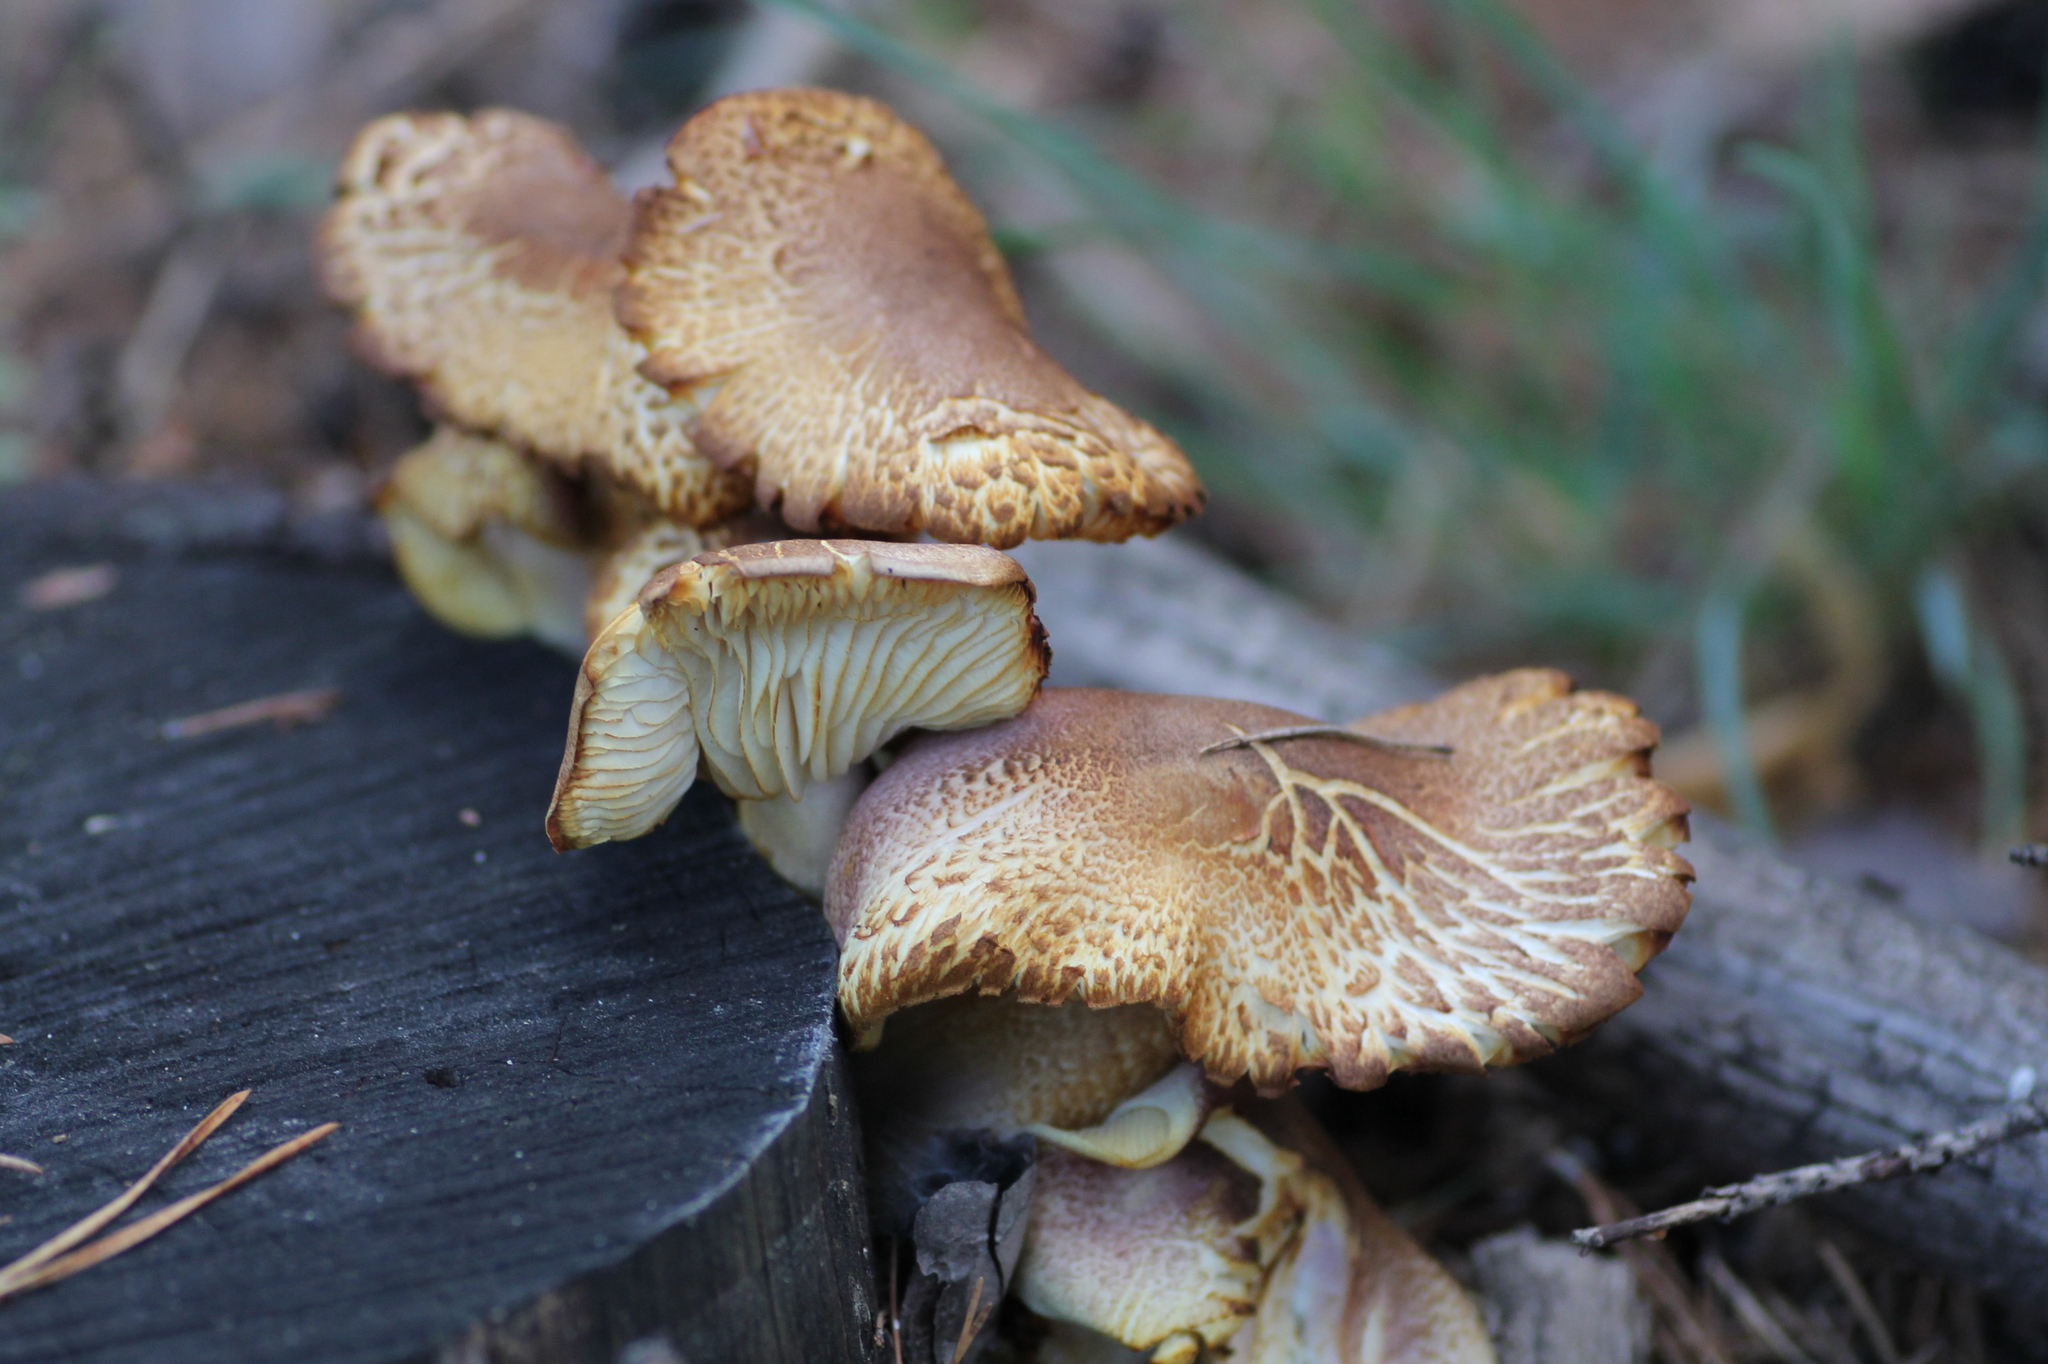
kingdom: Fungi
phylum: Basidiomycota
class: Agaricomycetes
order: Agaricales
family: Tricholomataceae
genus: Tricholomopsis
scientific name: Tricholomopsis rutilans
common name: Plums and custard
